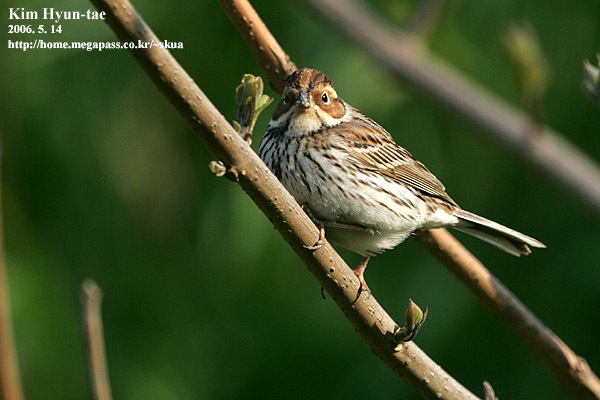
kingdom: Animalia
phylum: Chordata
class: Aves
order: Passeriformes
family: Emberizidae
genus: Emberiza
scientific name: Emberiza pusilla
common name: Little bunting
